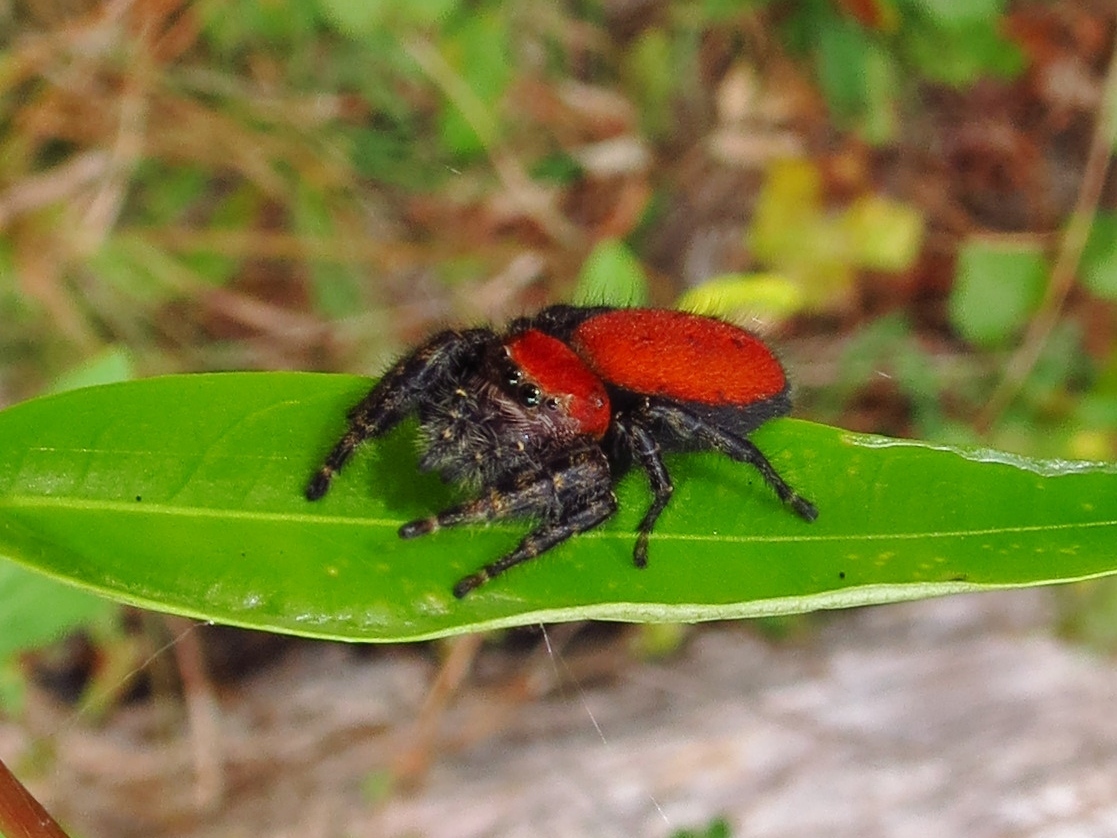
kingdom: Animalia
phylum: Arthropoda
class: Arachnida
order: Araneae
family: Salticidae
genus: Phidippus
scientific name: Phidippus cardinalis
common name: Cardinal jumper
